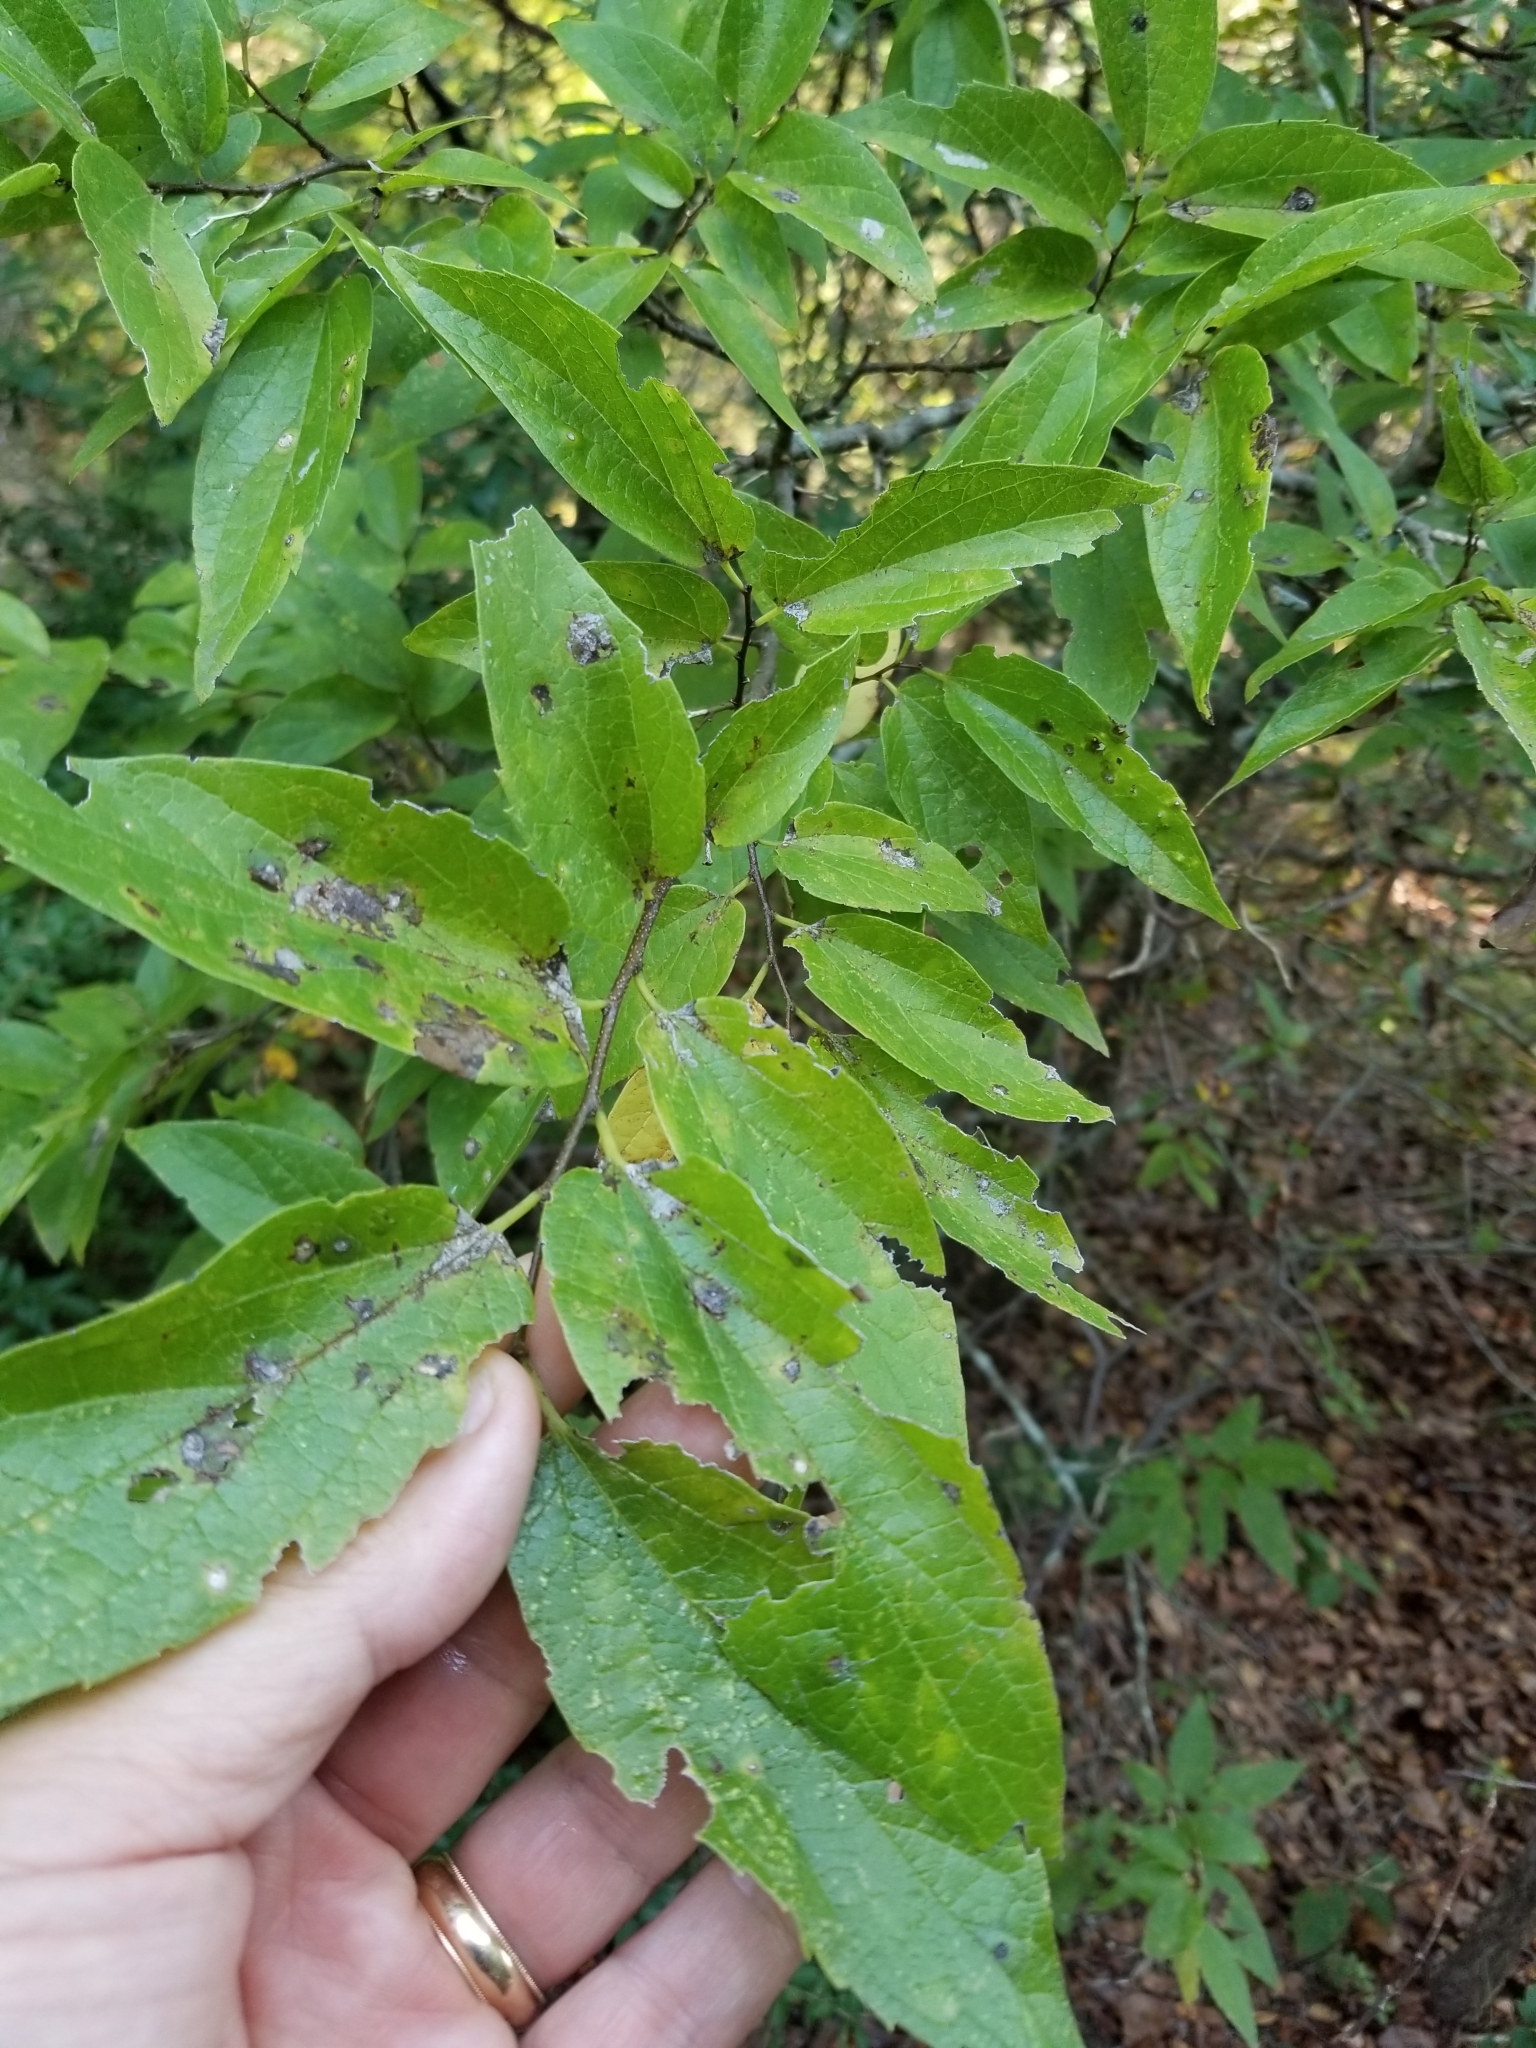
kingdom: Plantae
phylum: Tracheophyta
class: Magnoliopsida
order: Rosales
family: Cannabaceae
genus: Celtis
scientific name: Celtis laevigata
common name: Sugarberry
